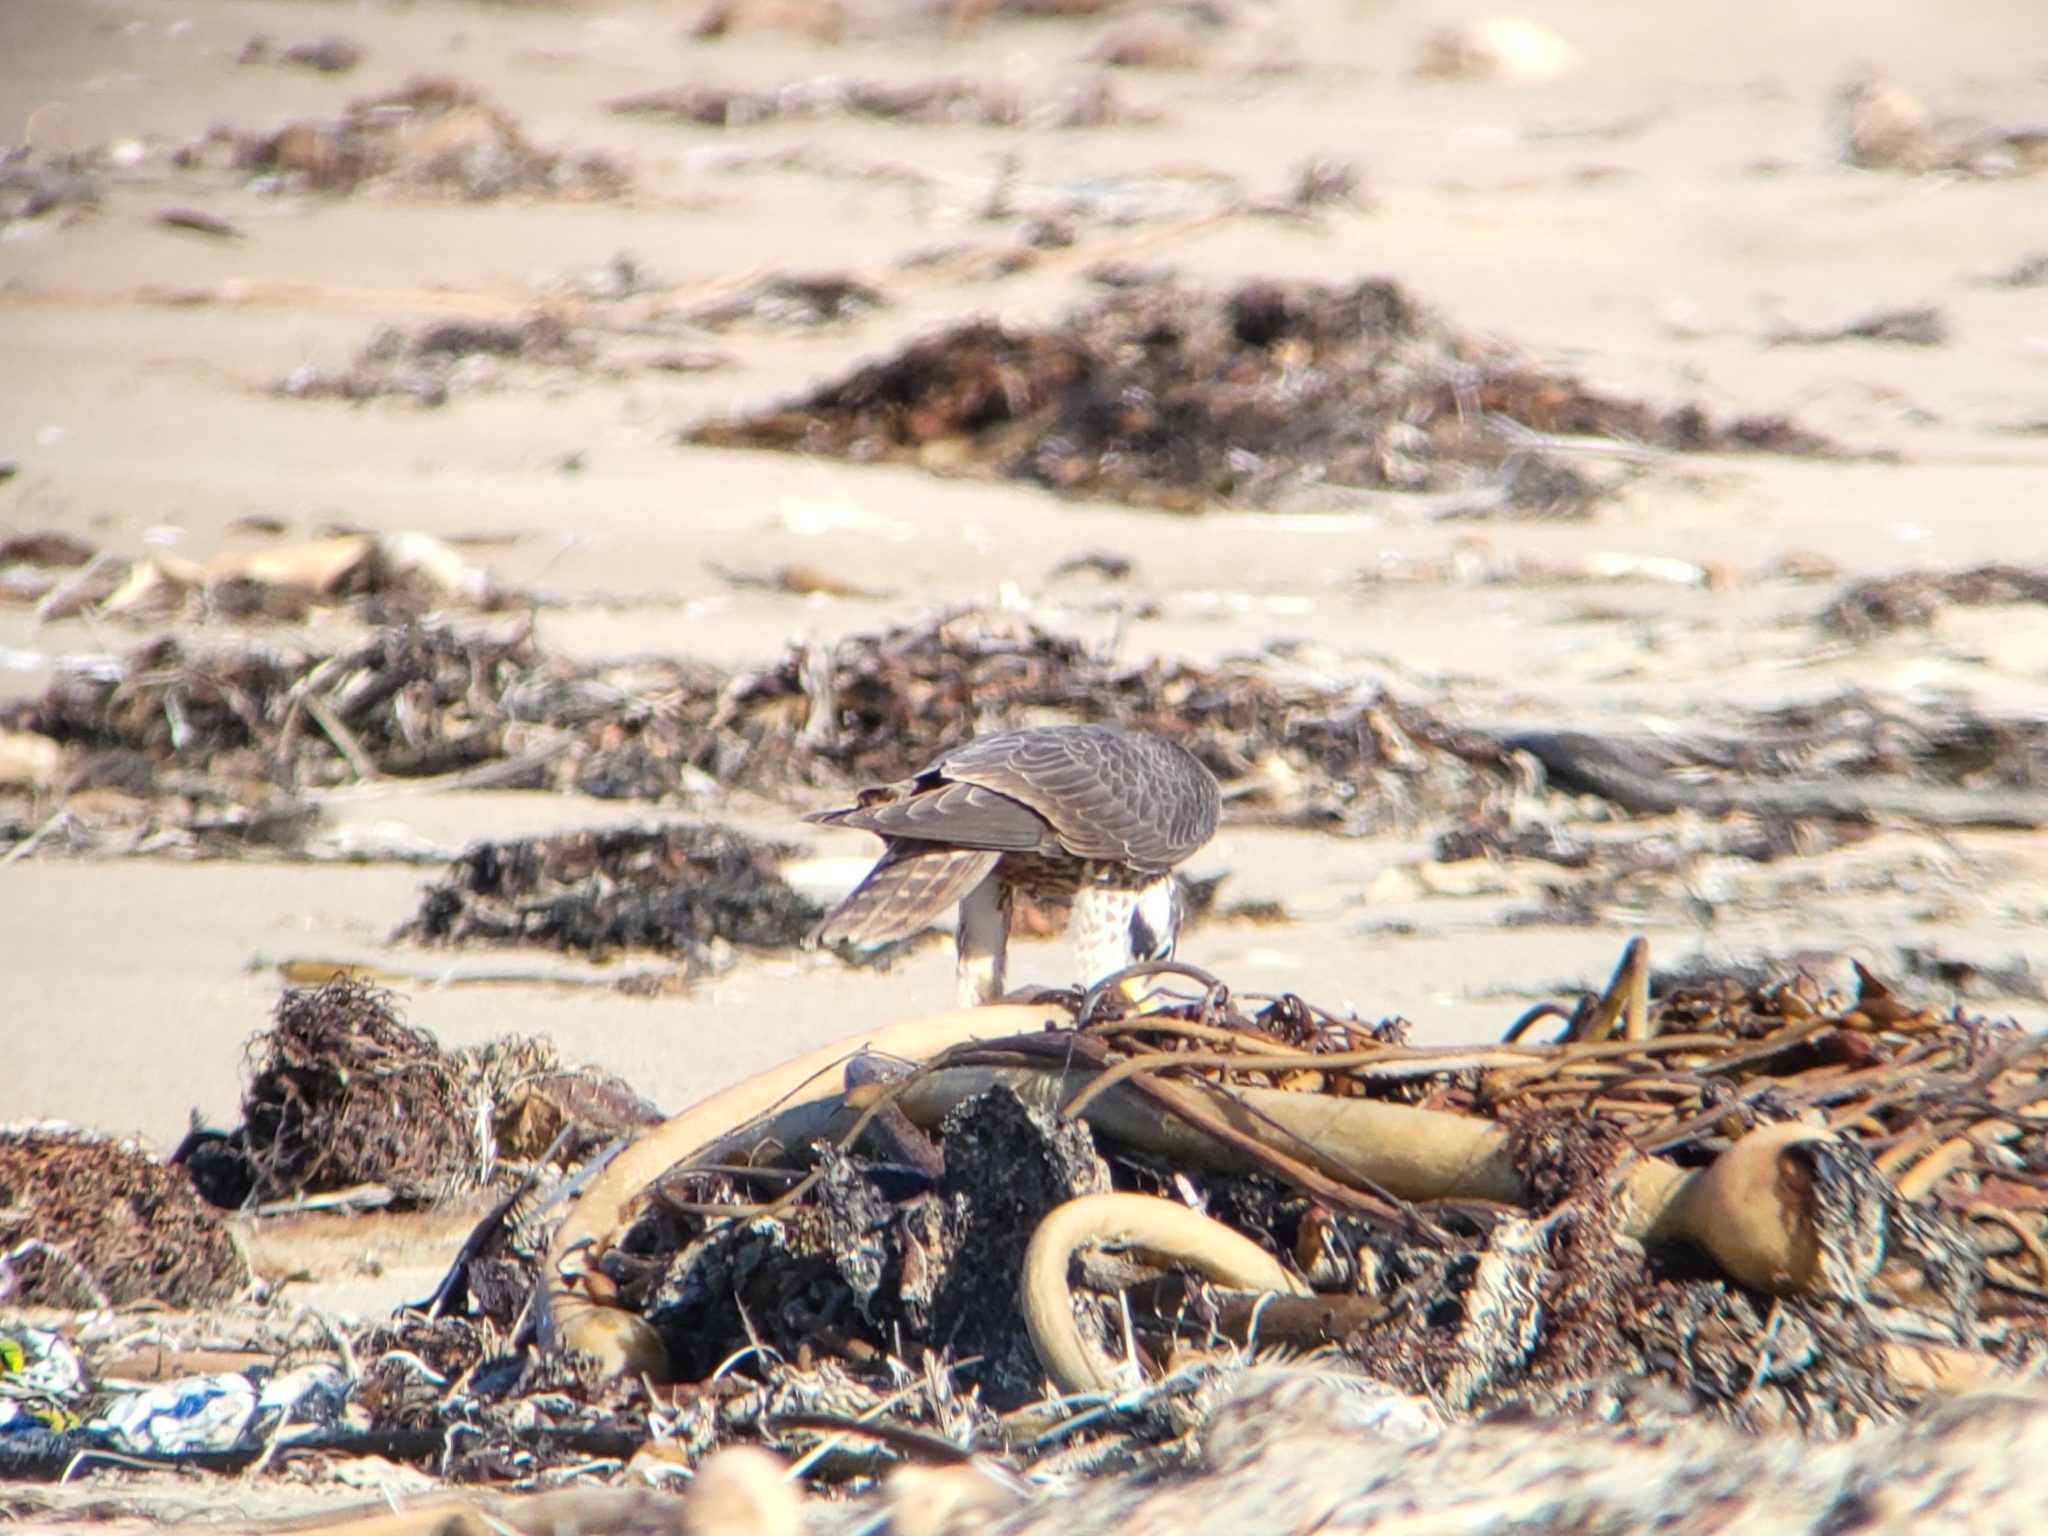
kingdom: Animalia
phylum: Chordata
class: Aves
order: Falconiformes
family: Falconidae
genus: Falco
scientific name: Falco peregrinus
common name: Peregrine falcon
